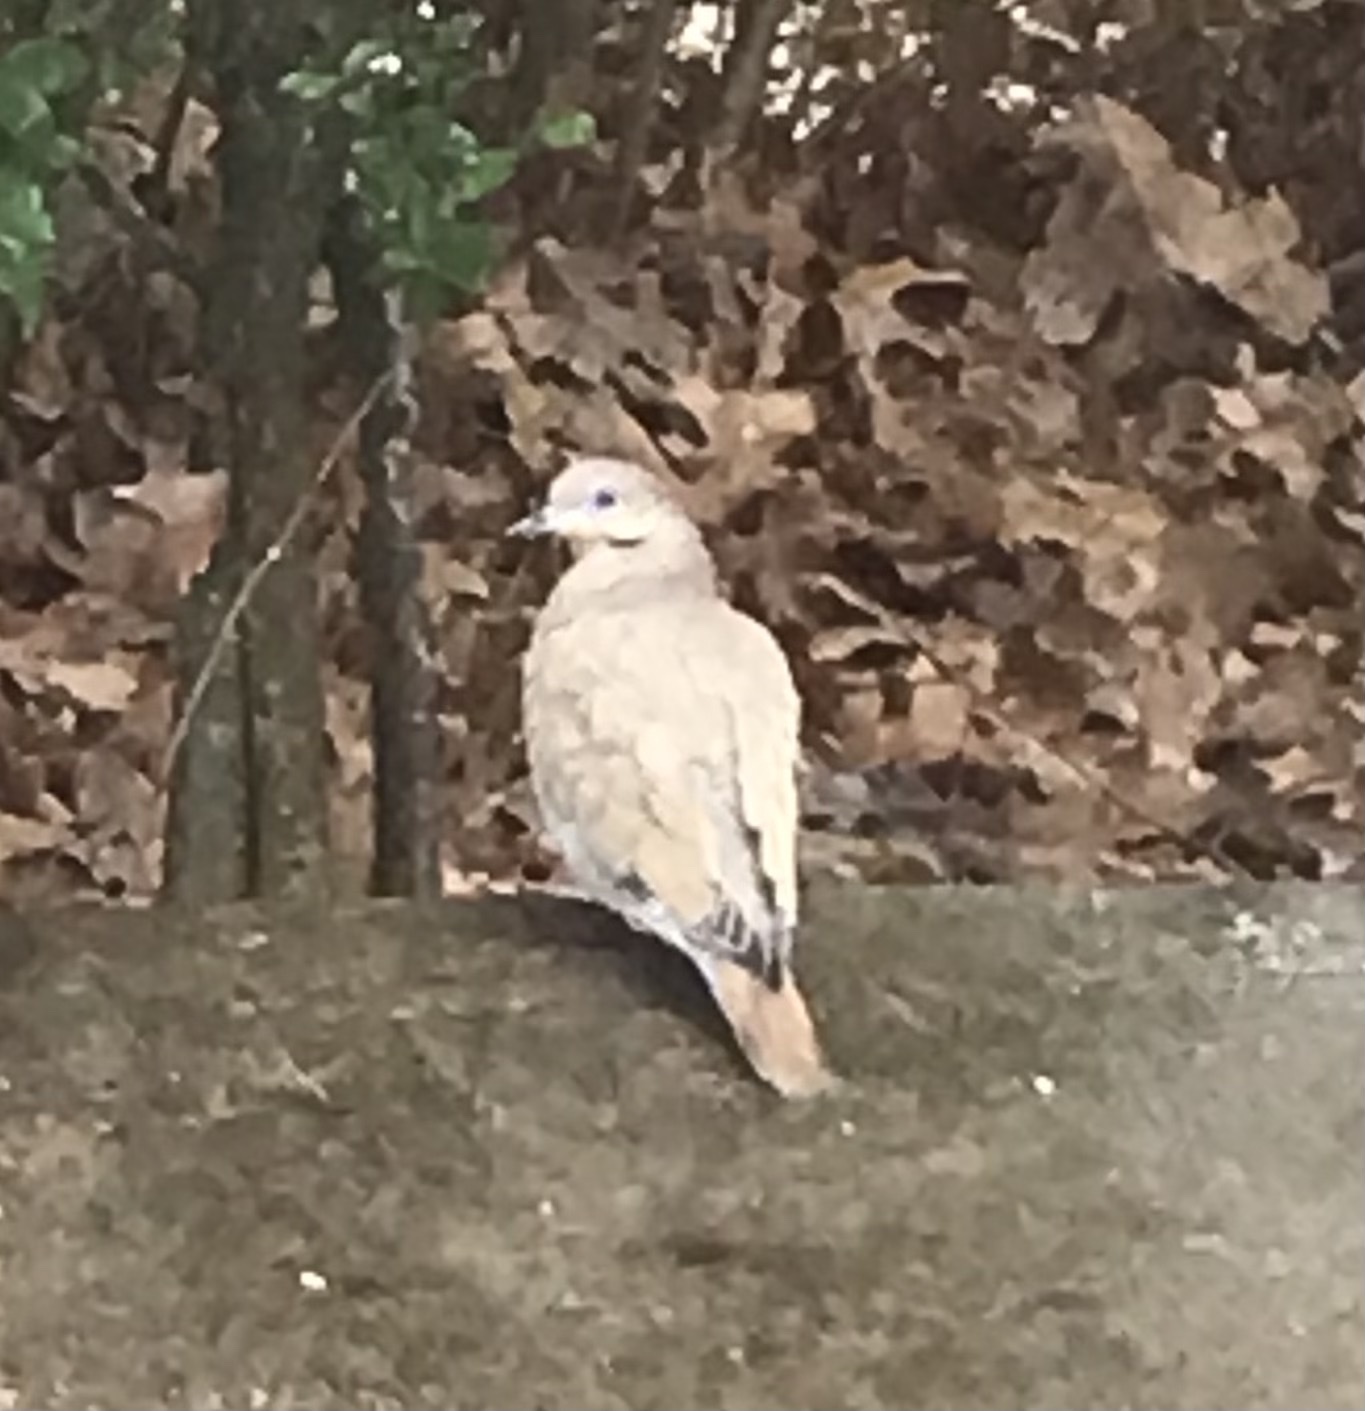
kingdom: Animalia
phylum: Chordata
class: Aves
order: Columbiformes
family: Columbidae
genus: Zenaida
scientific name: Zenaida asiatica
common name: White-winged dove
